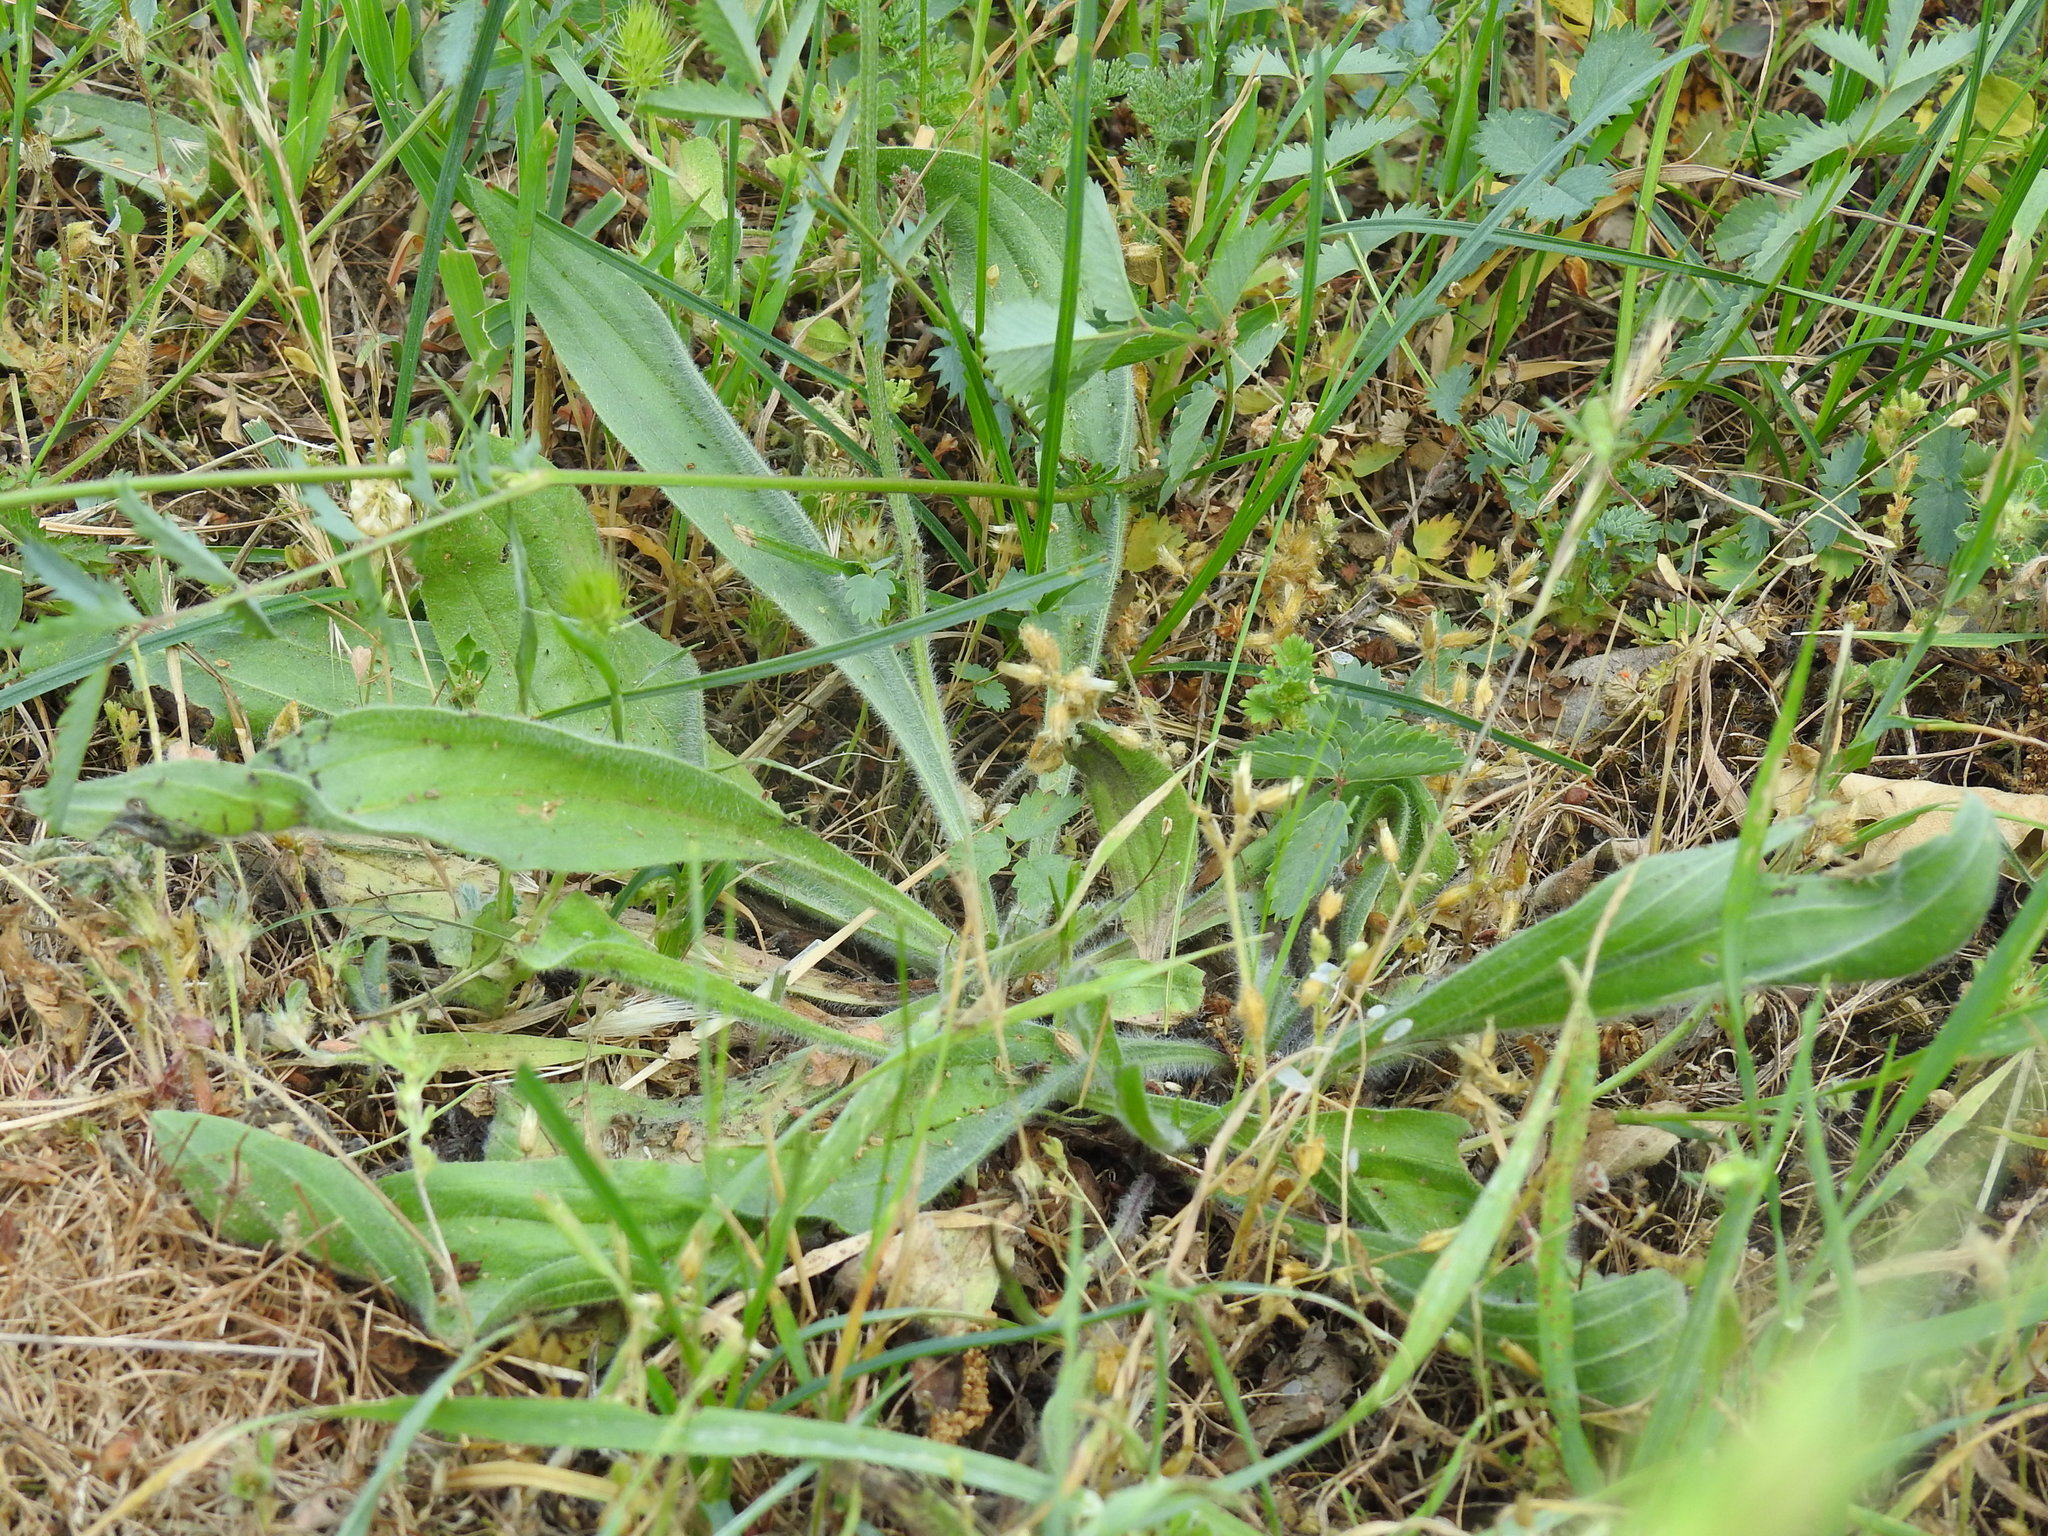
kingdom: Plantae
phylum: Tracheophyta
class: Magnoliopsida
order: Lamiales
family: Plantaginaceae
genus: Plantago
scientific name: Plantago lanceolata
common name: Ribwort plantain
